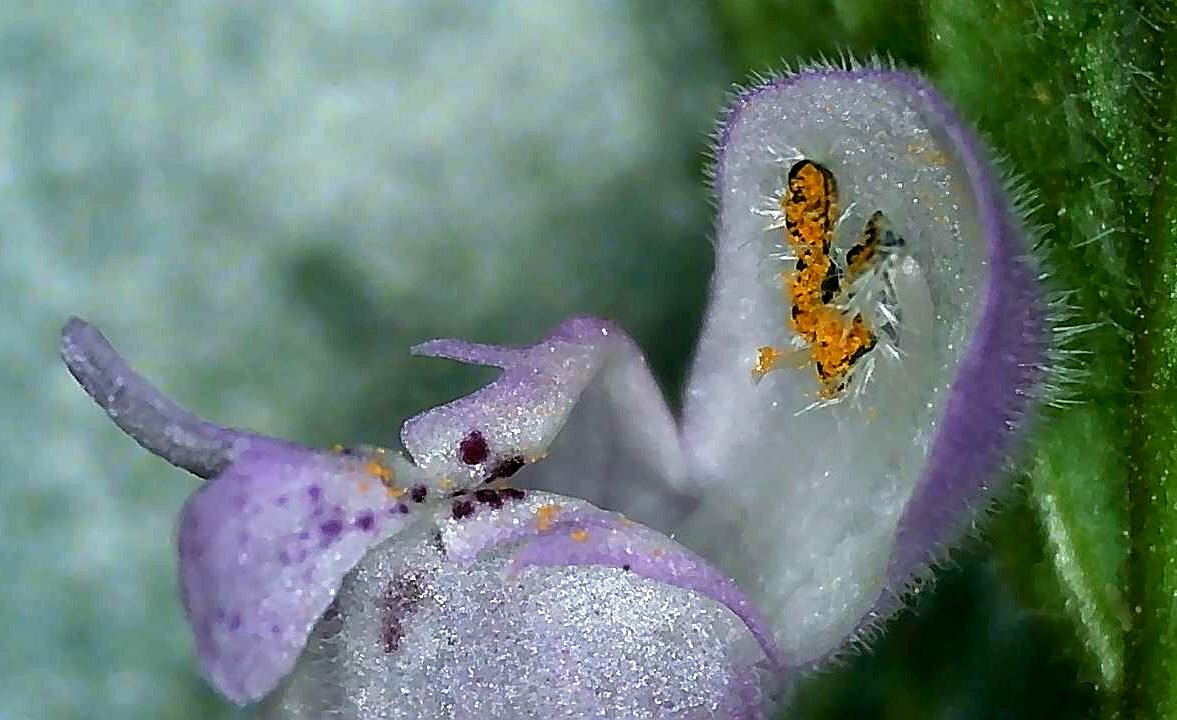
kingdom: Plantae
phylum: Tracheophyta
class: Magnoliopsida
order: Lamiales
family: Lamiaceae
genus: Lamium
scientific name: Lamium purpureum
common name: Red dead-nettle
